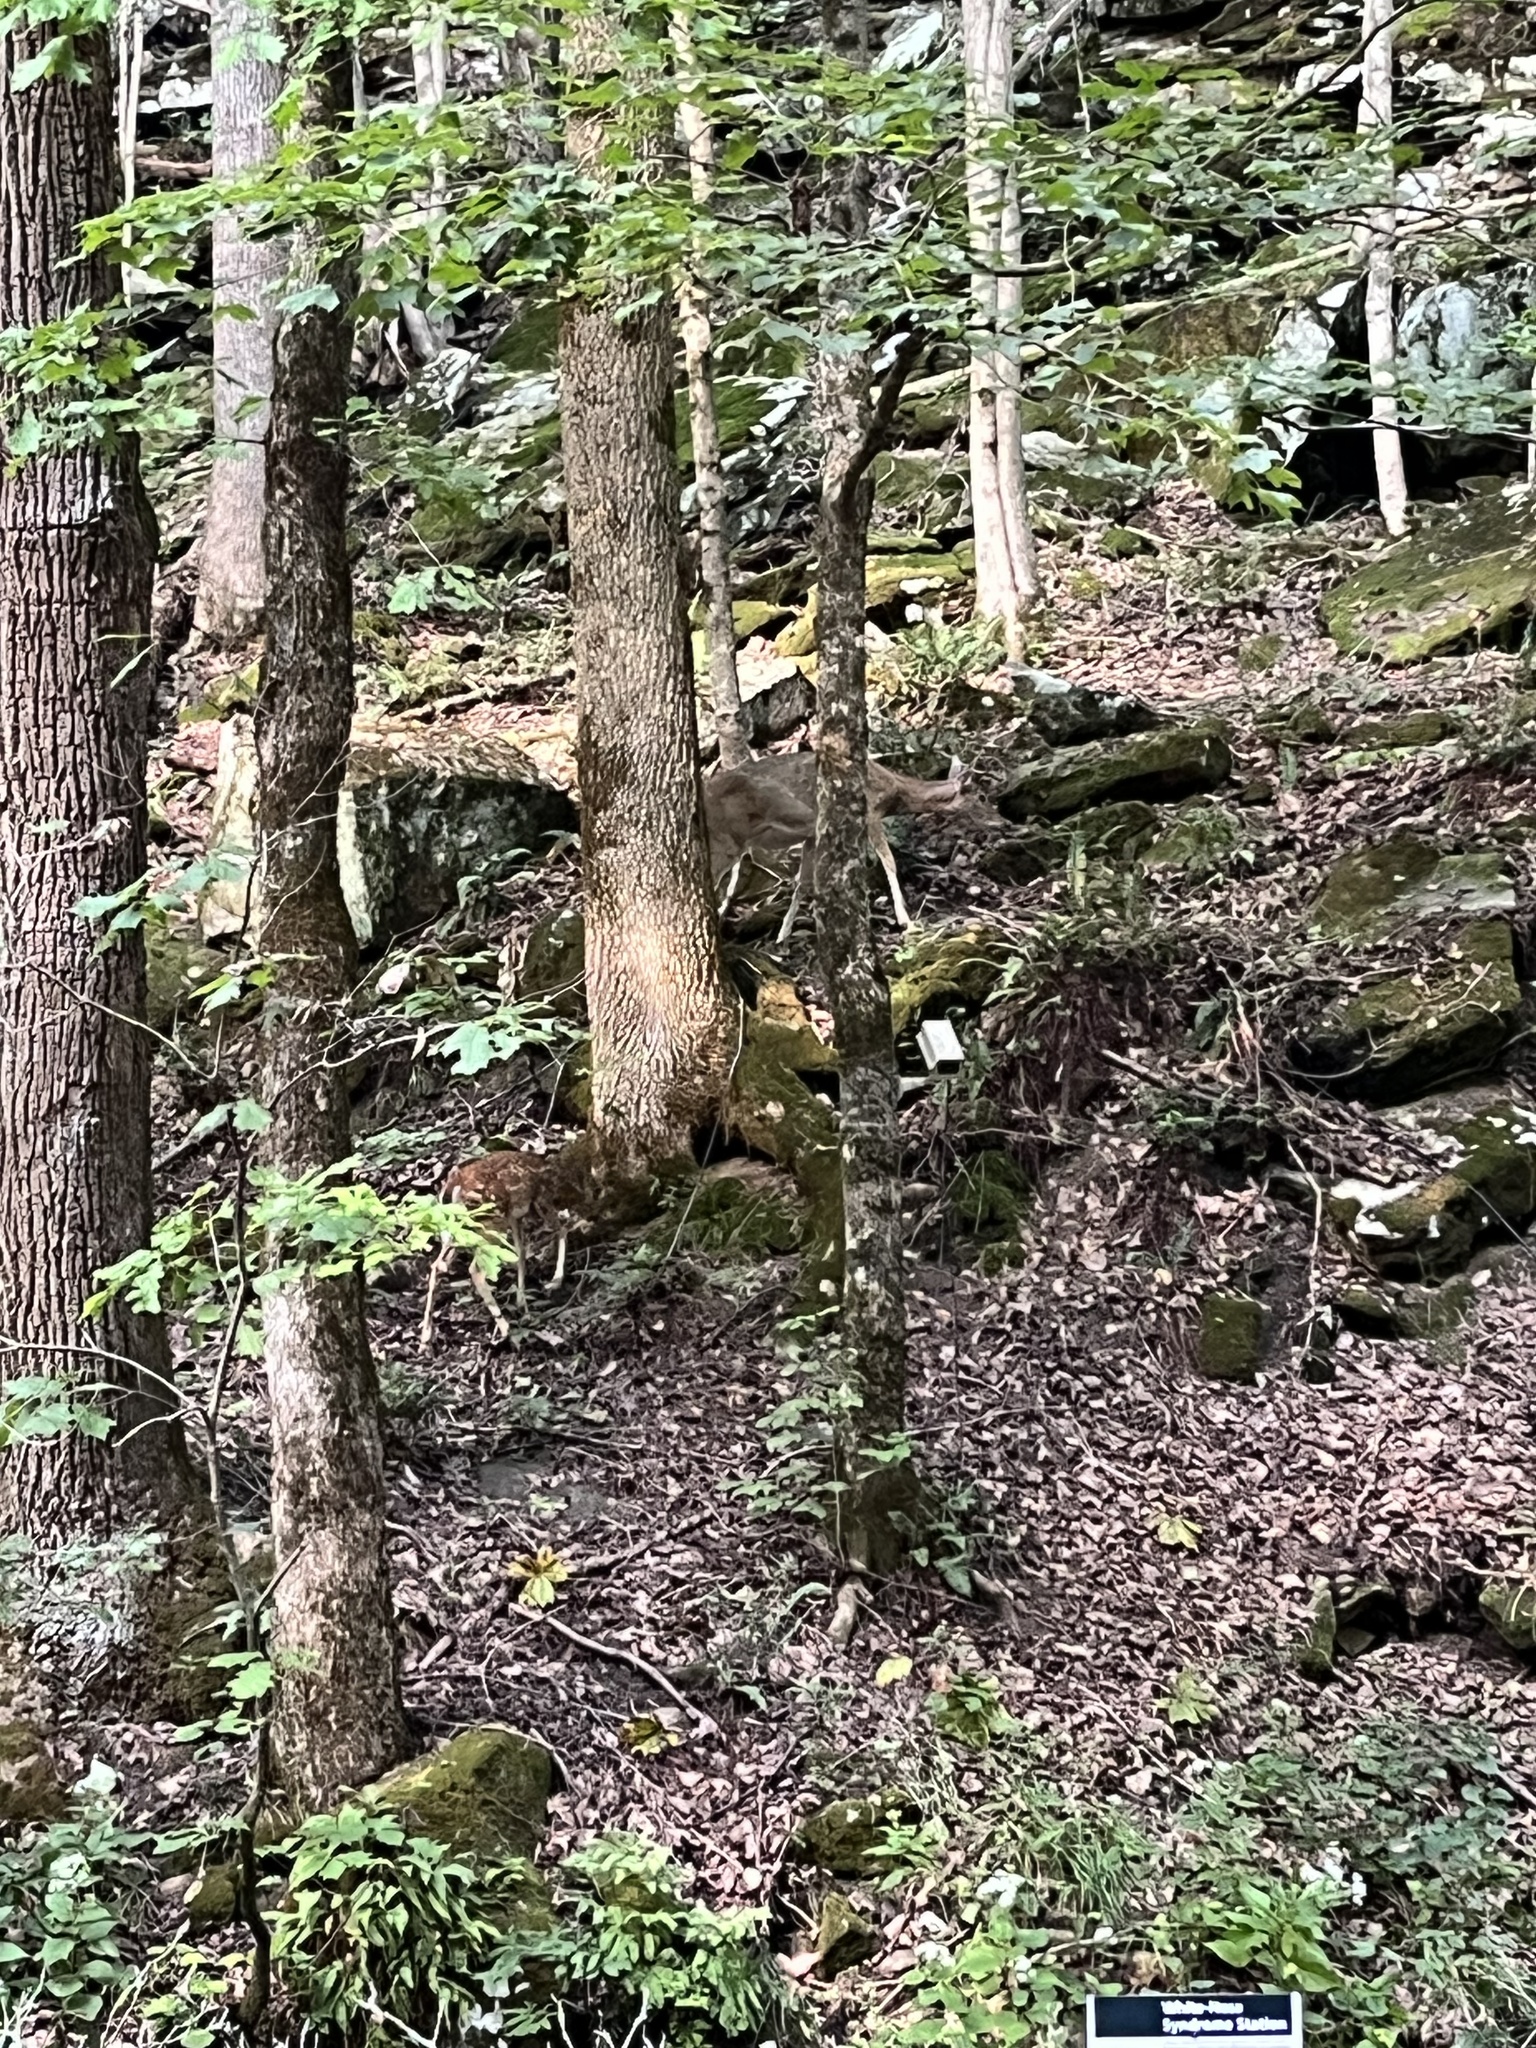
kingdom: Animalia
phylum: Chordata
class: Mammalia
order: Artiodactyla
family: Cervidae
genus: Odocoileus
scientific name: Odocoileus virginianus
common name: White-tailed deer
